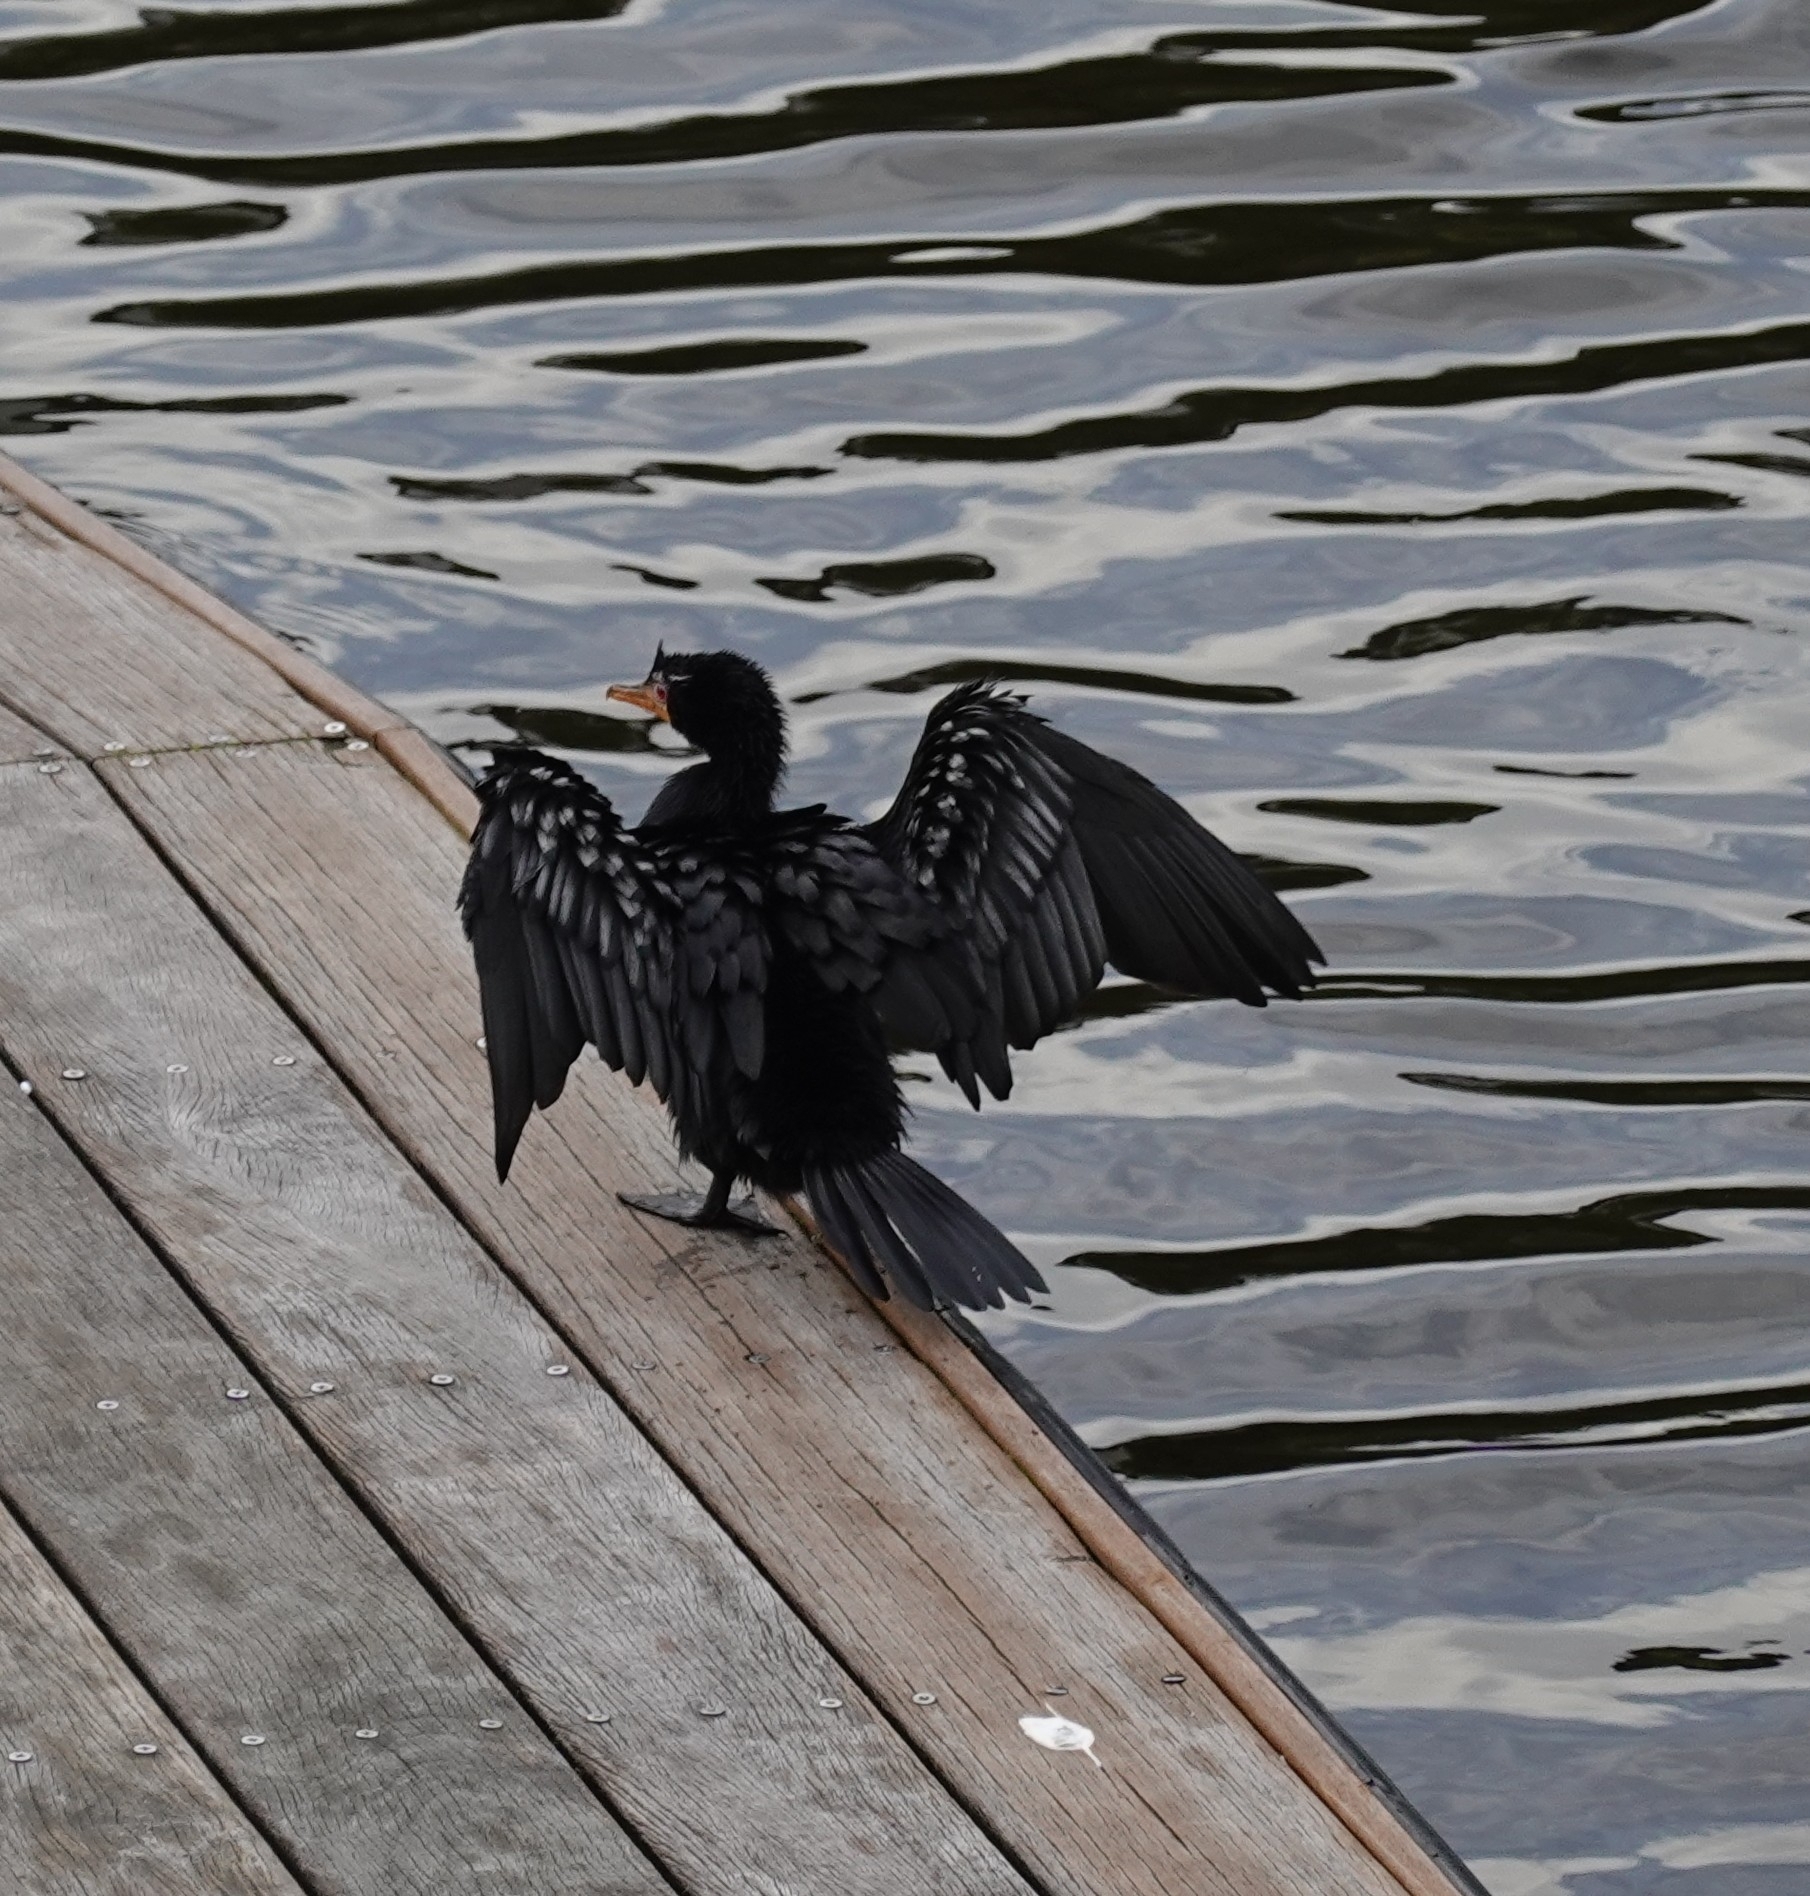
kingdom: Animalia
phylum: Chordata
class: Aves
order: Suliformes
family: Phalacrocoracidae
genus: Microcarbo
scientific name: Microcarbo africanus
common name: Long-tailed cormorant
